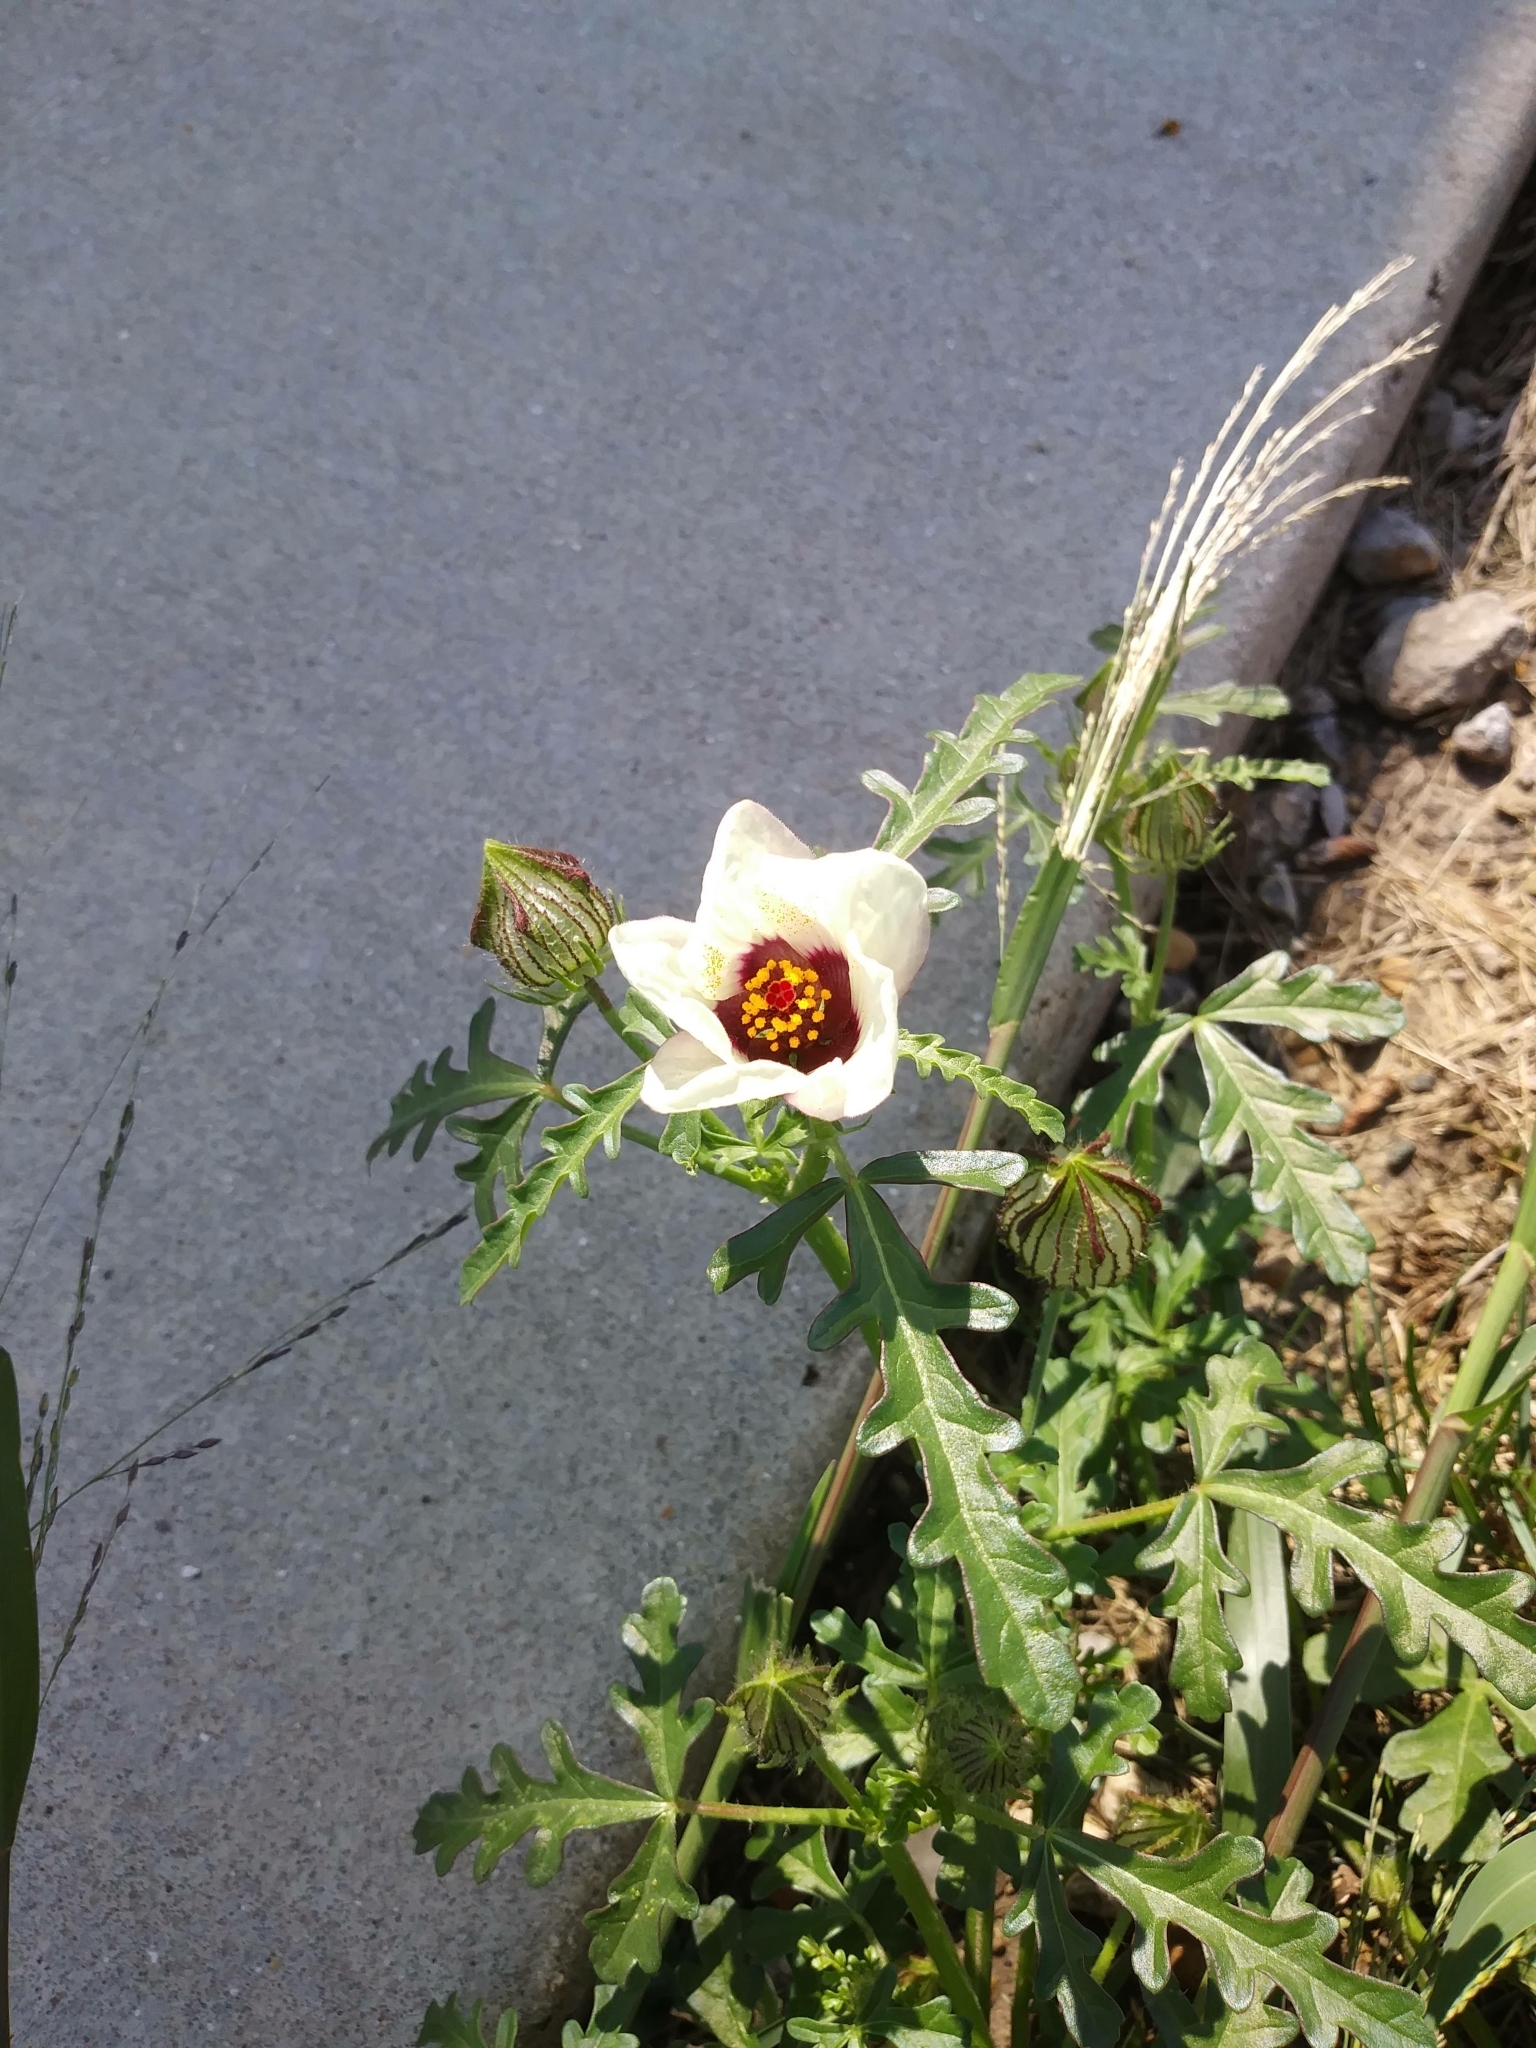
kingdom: Plantae
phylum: Tracheophyta
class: Magnoliopsida
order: Malvales
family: Malvaceae
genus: Hibiscus
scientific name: Hibiscus trionum
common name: Bladder ketmia
